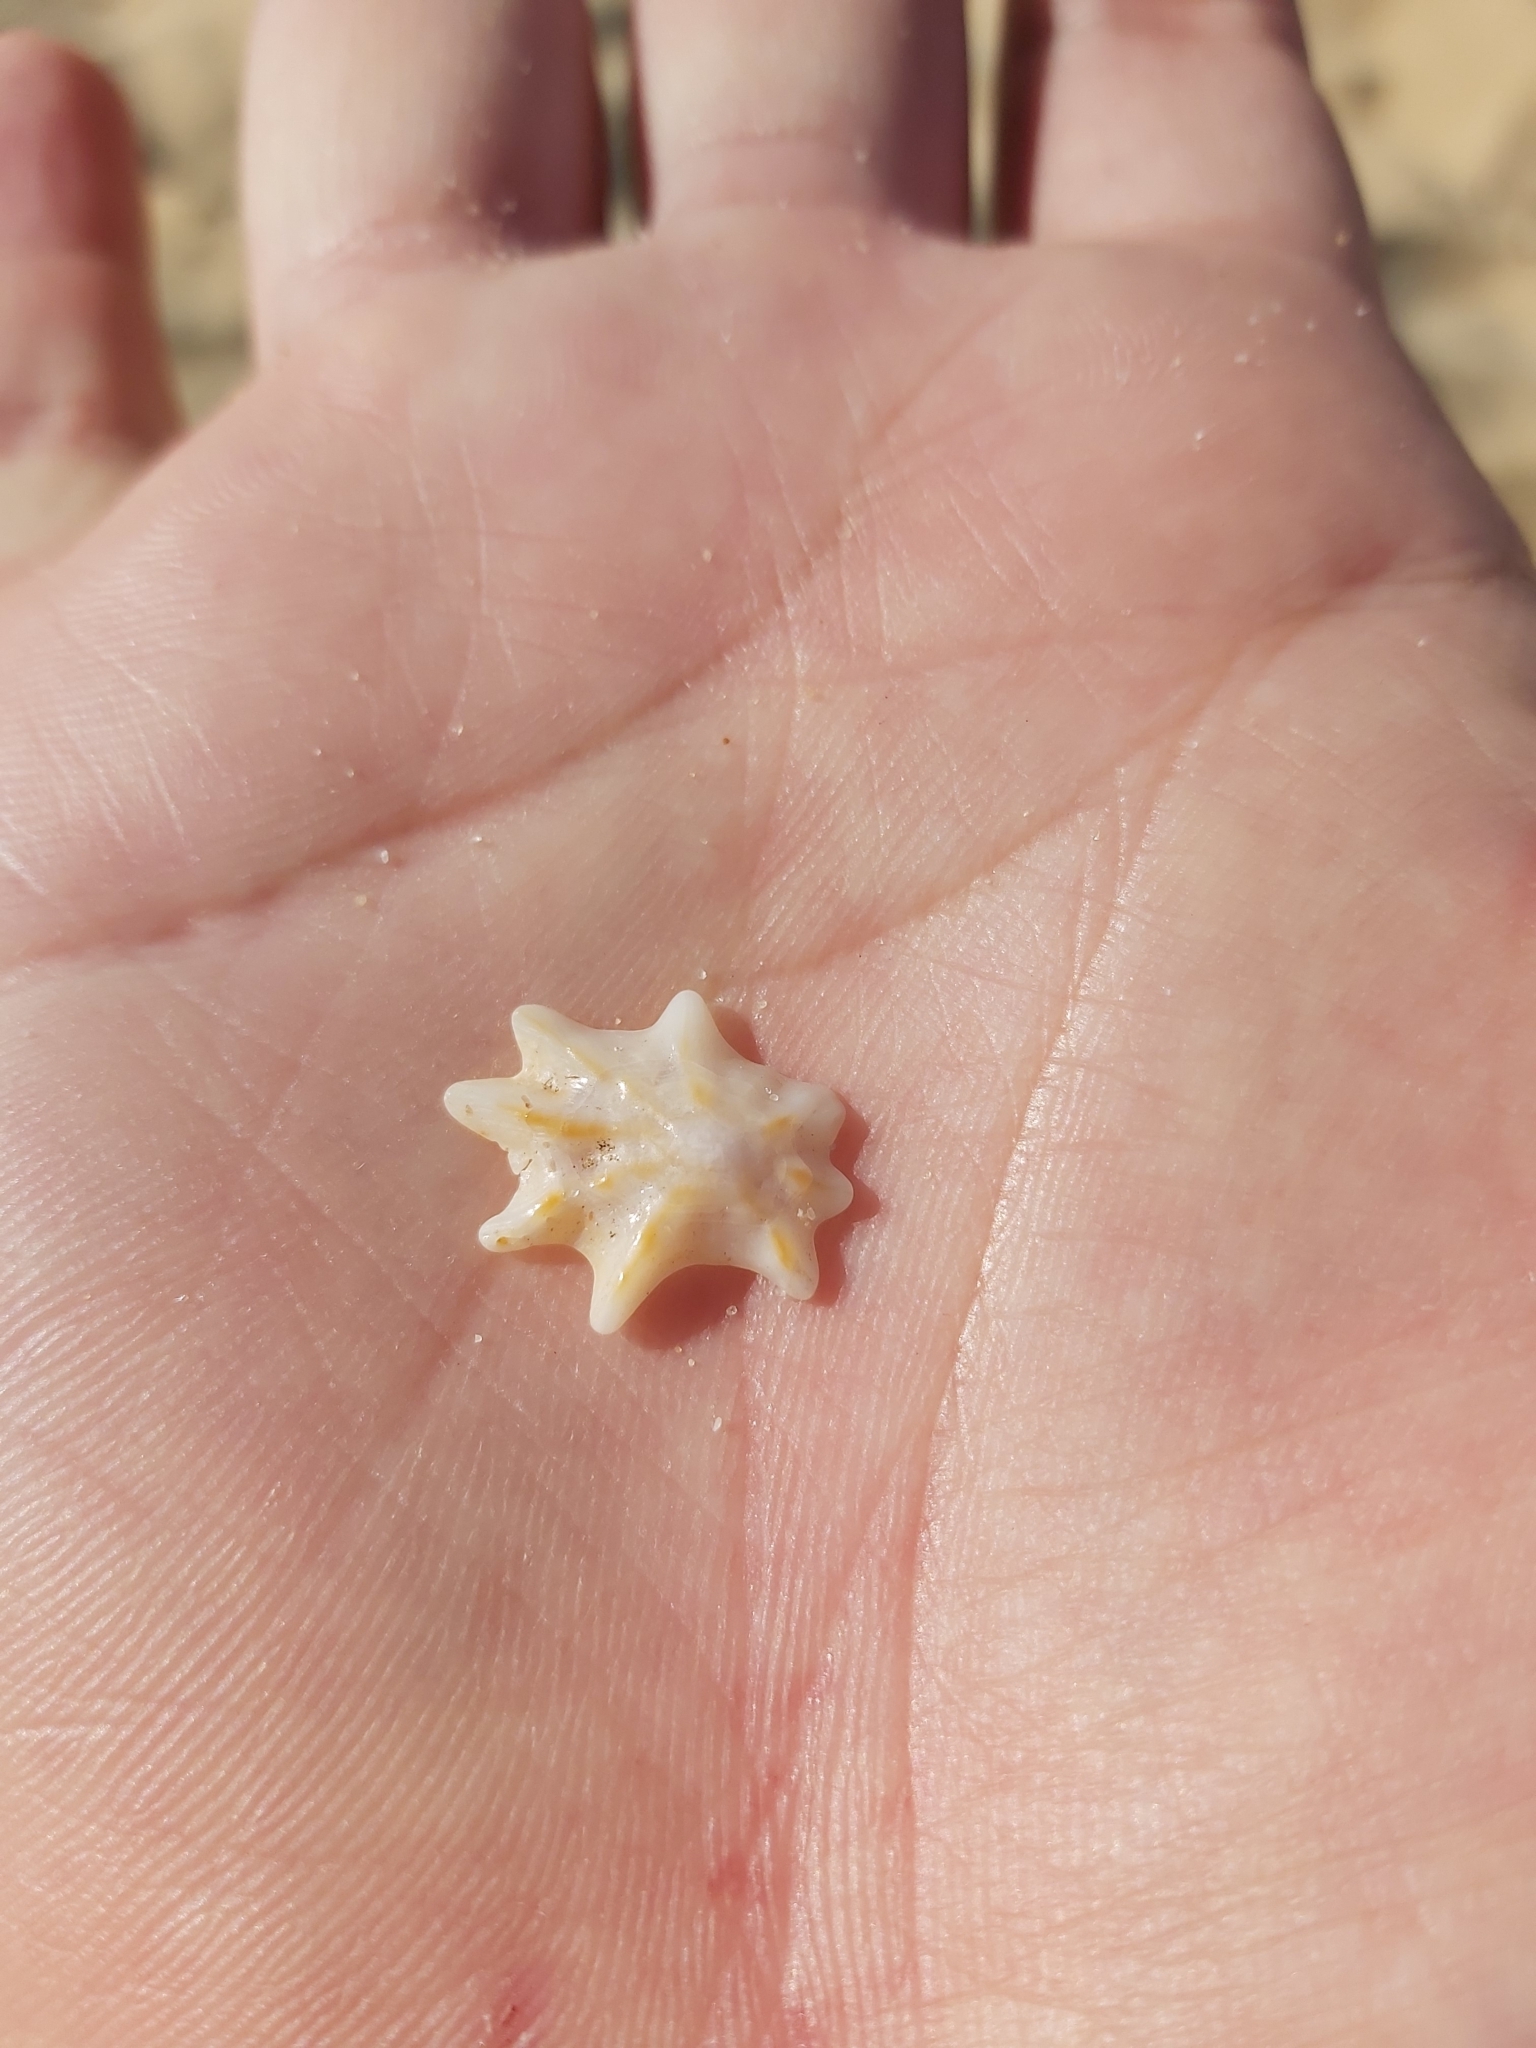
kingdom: Animalia
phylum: Mollusca
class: Gastropoda
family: Patellidae
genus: Scutellastra
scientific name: Scutellastra chapmani
